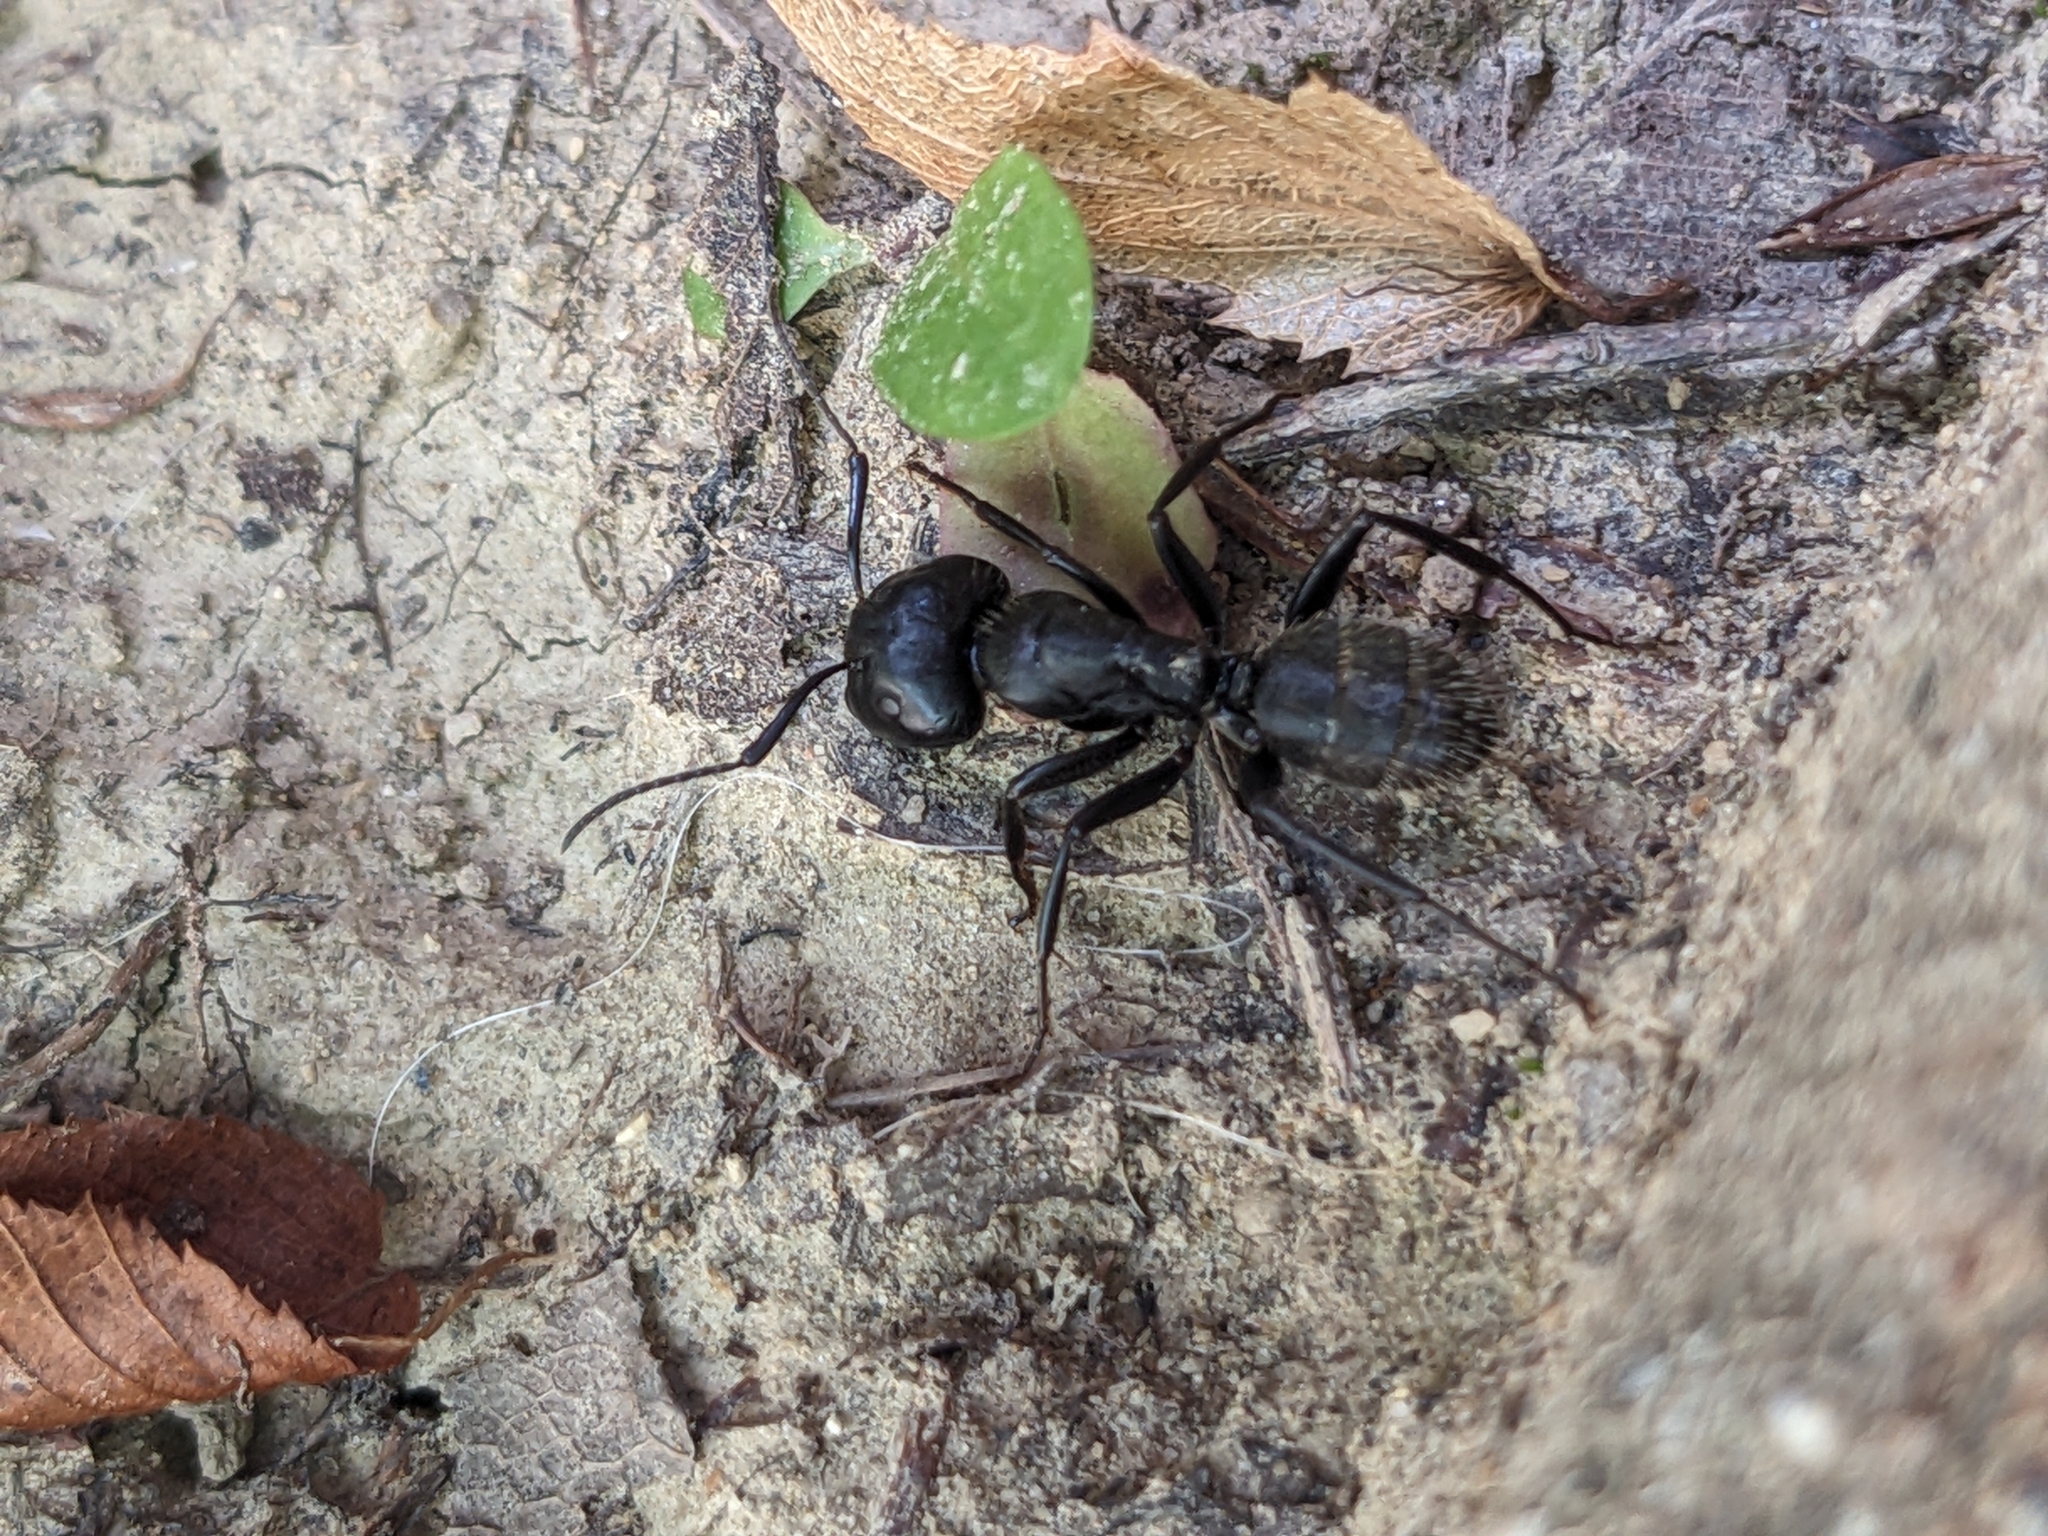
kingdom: Animalia
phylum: Arthropoda
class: Insecta
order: Hymenoptera
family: Formicidae
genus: Camponotus
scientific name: Camponotus vagus
